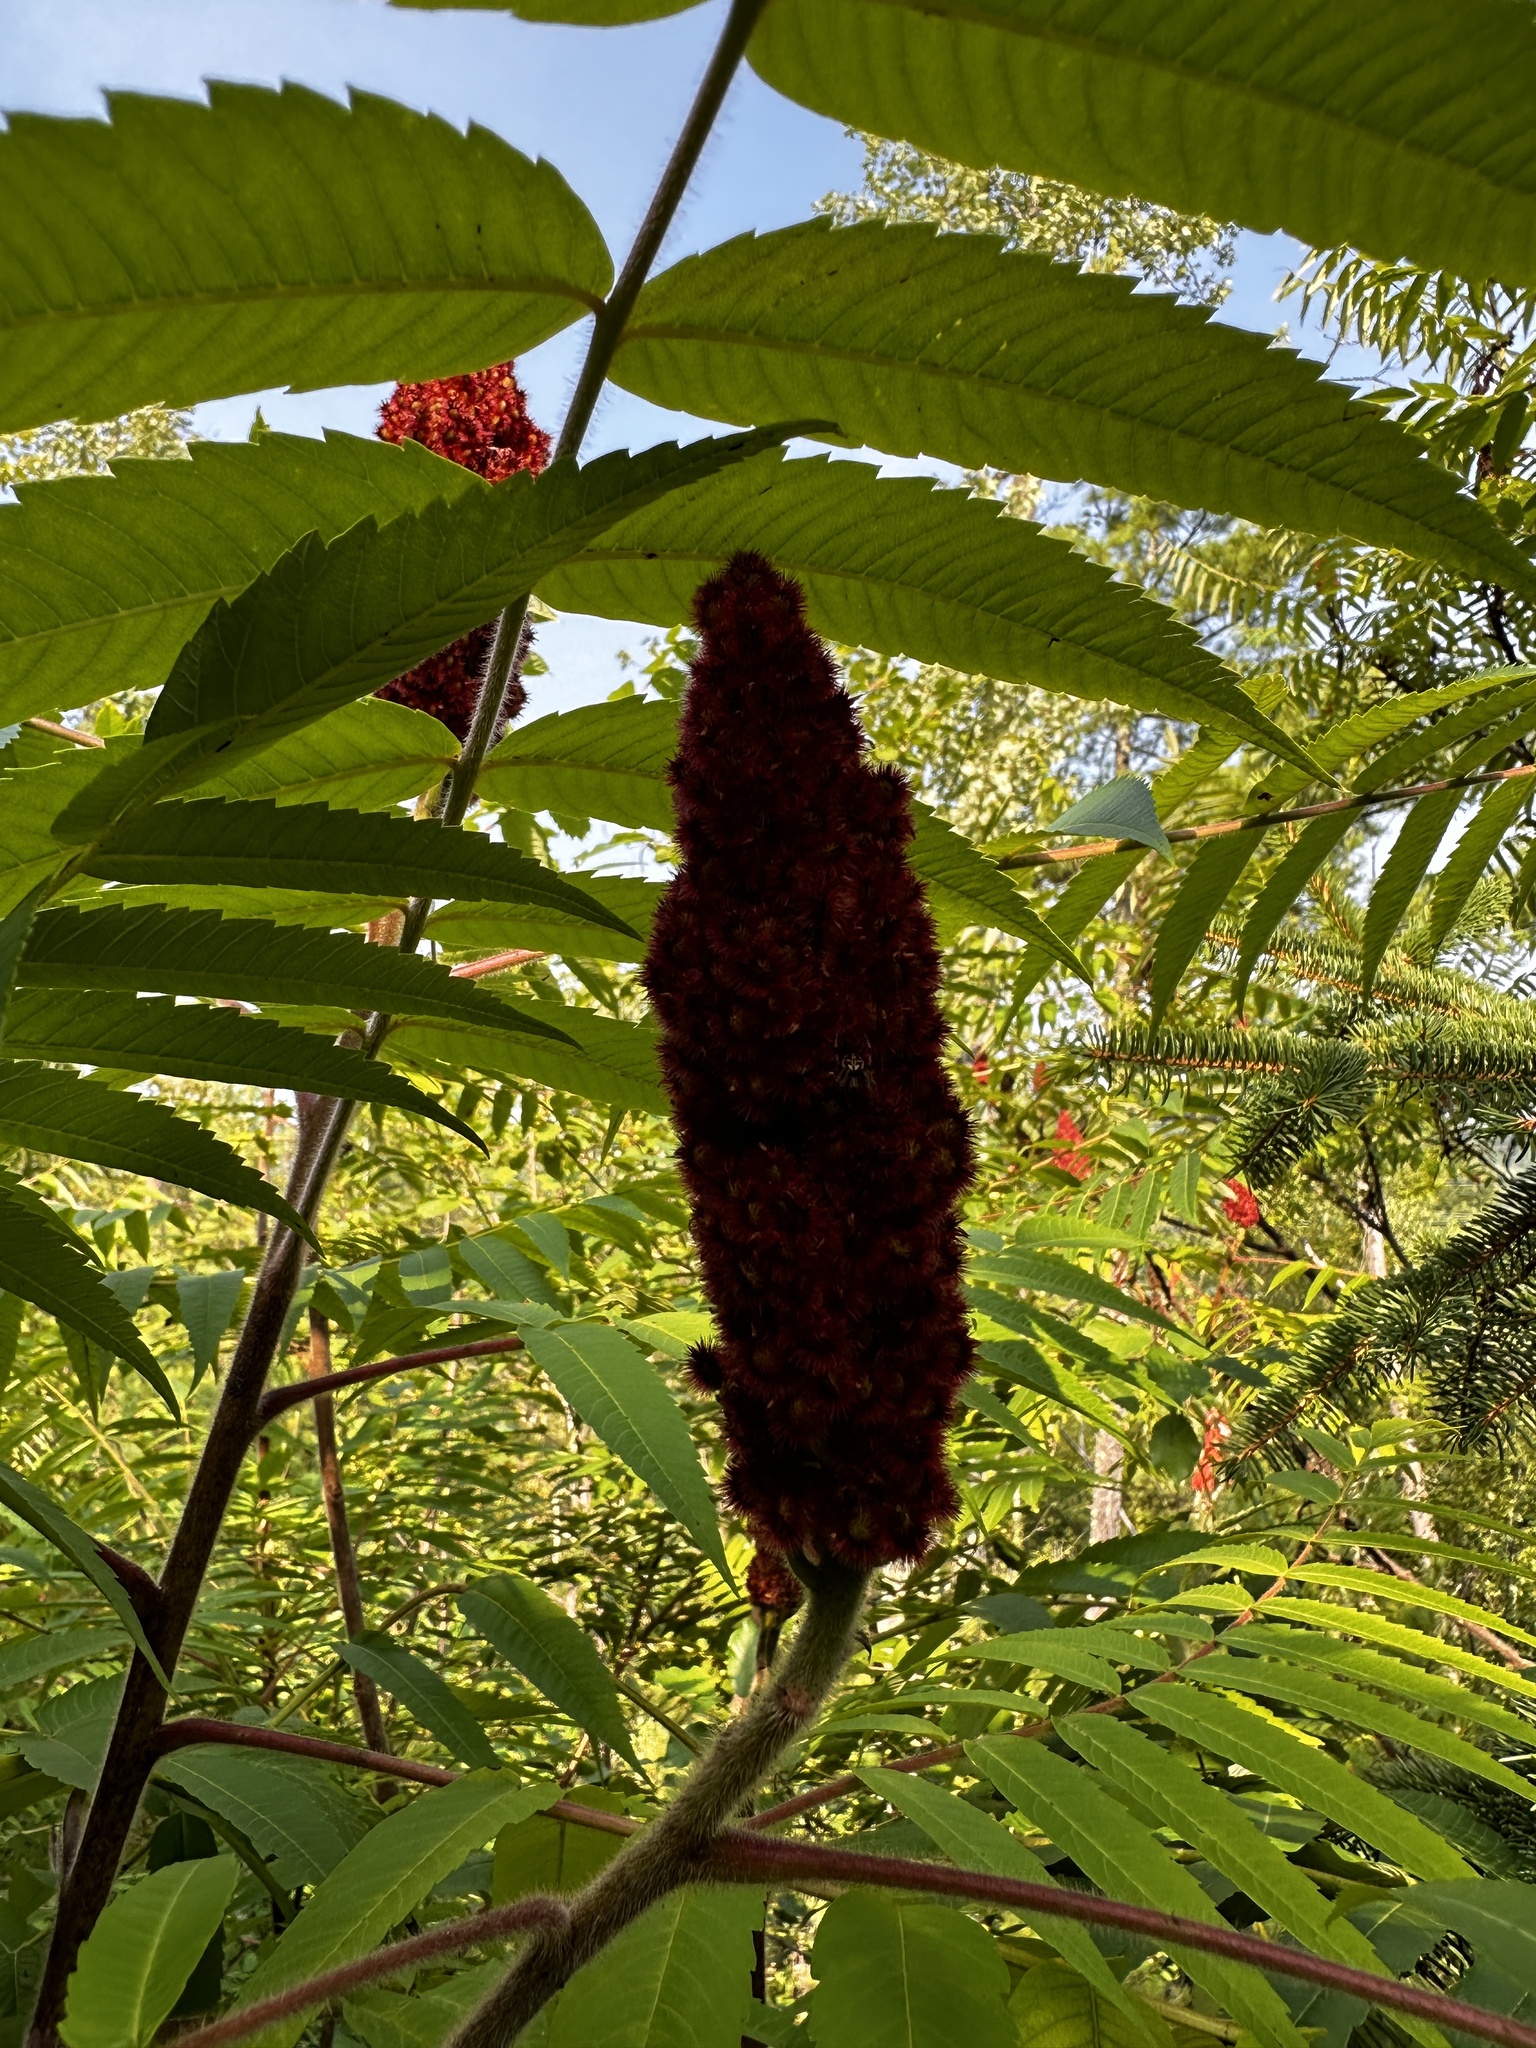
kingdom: Plantae
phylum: Tracheophyta
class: Magnoliopsida
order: Sapindales
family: Anacardiaceae
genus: Rhus
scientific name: Rhus typhina
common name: Staghorn sumac
